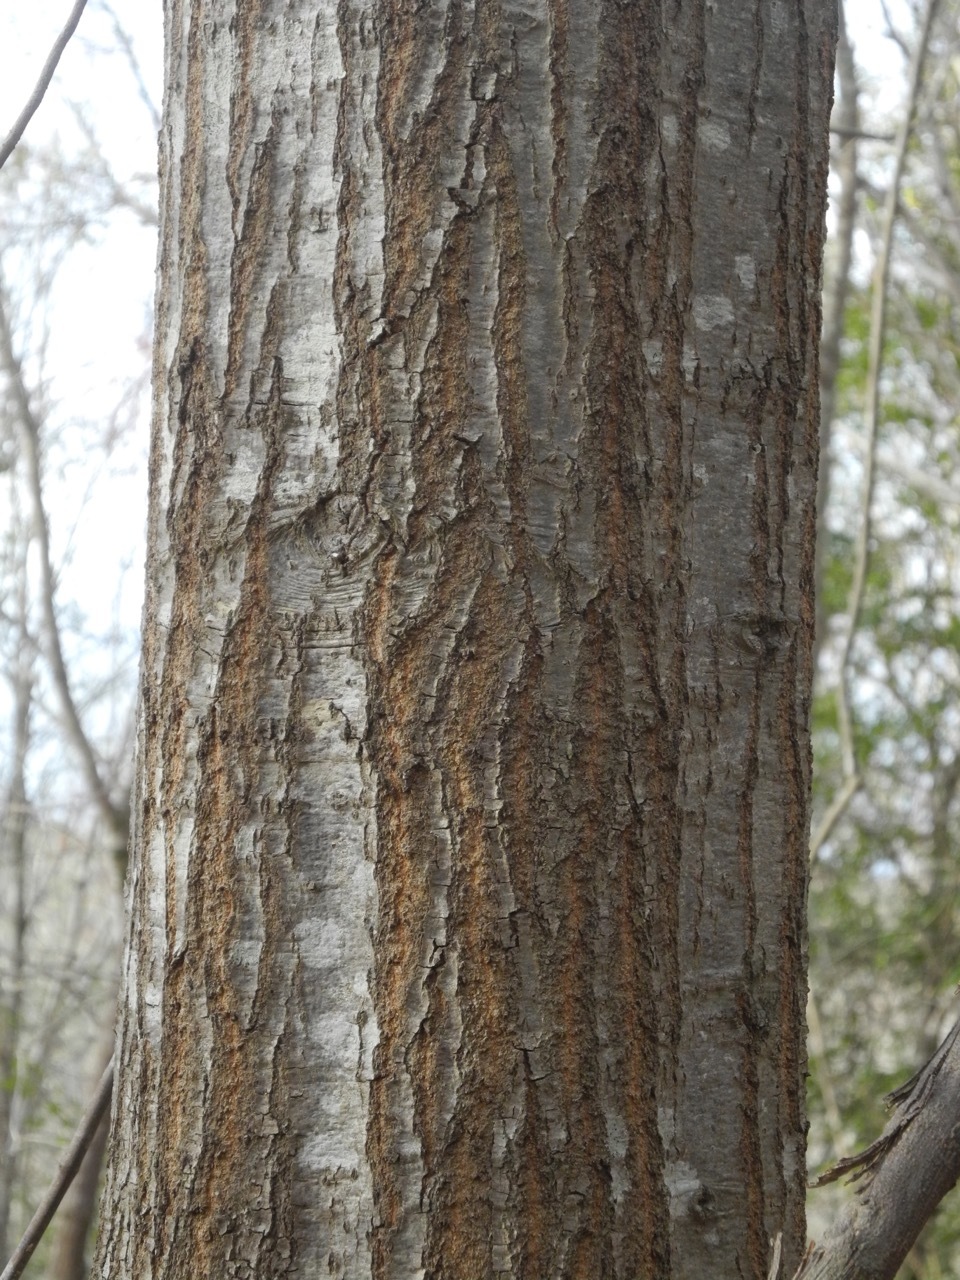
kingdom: Plantae
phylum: Tracheophyta
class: Magnoliopsida
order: Fagales
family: Fagaceae
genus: Quercus
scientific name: Quercus nigra
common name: Water oak
